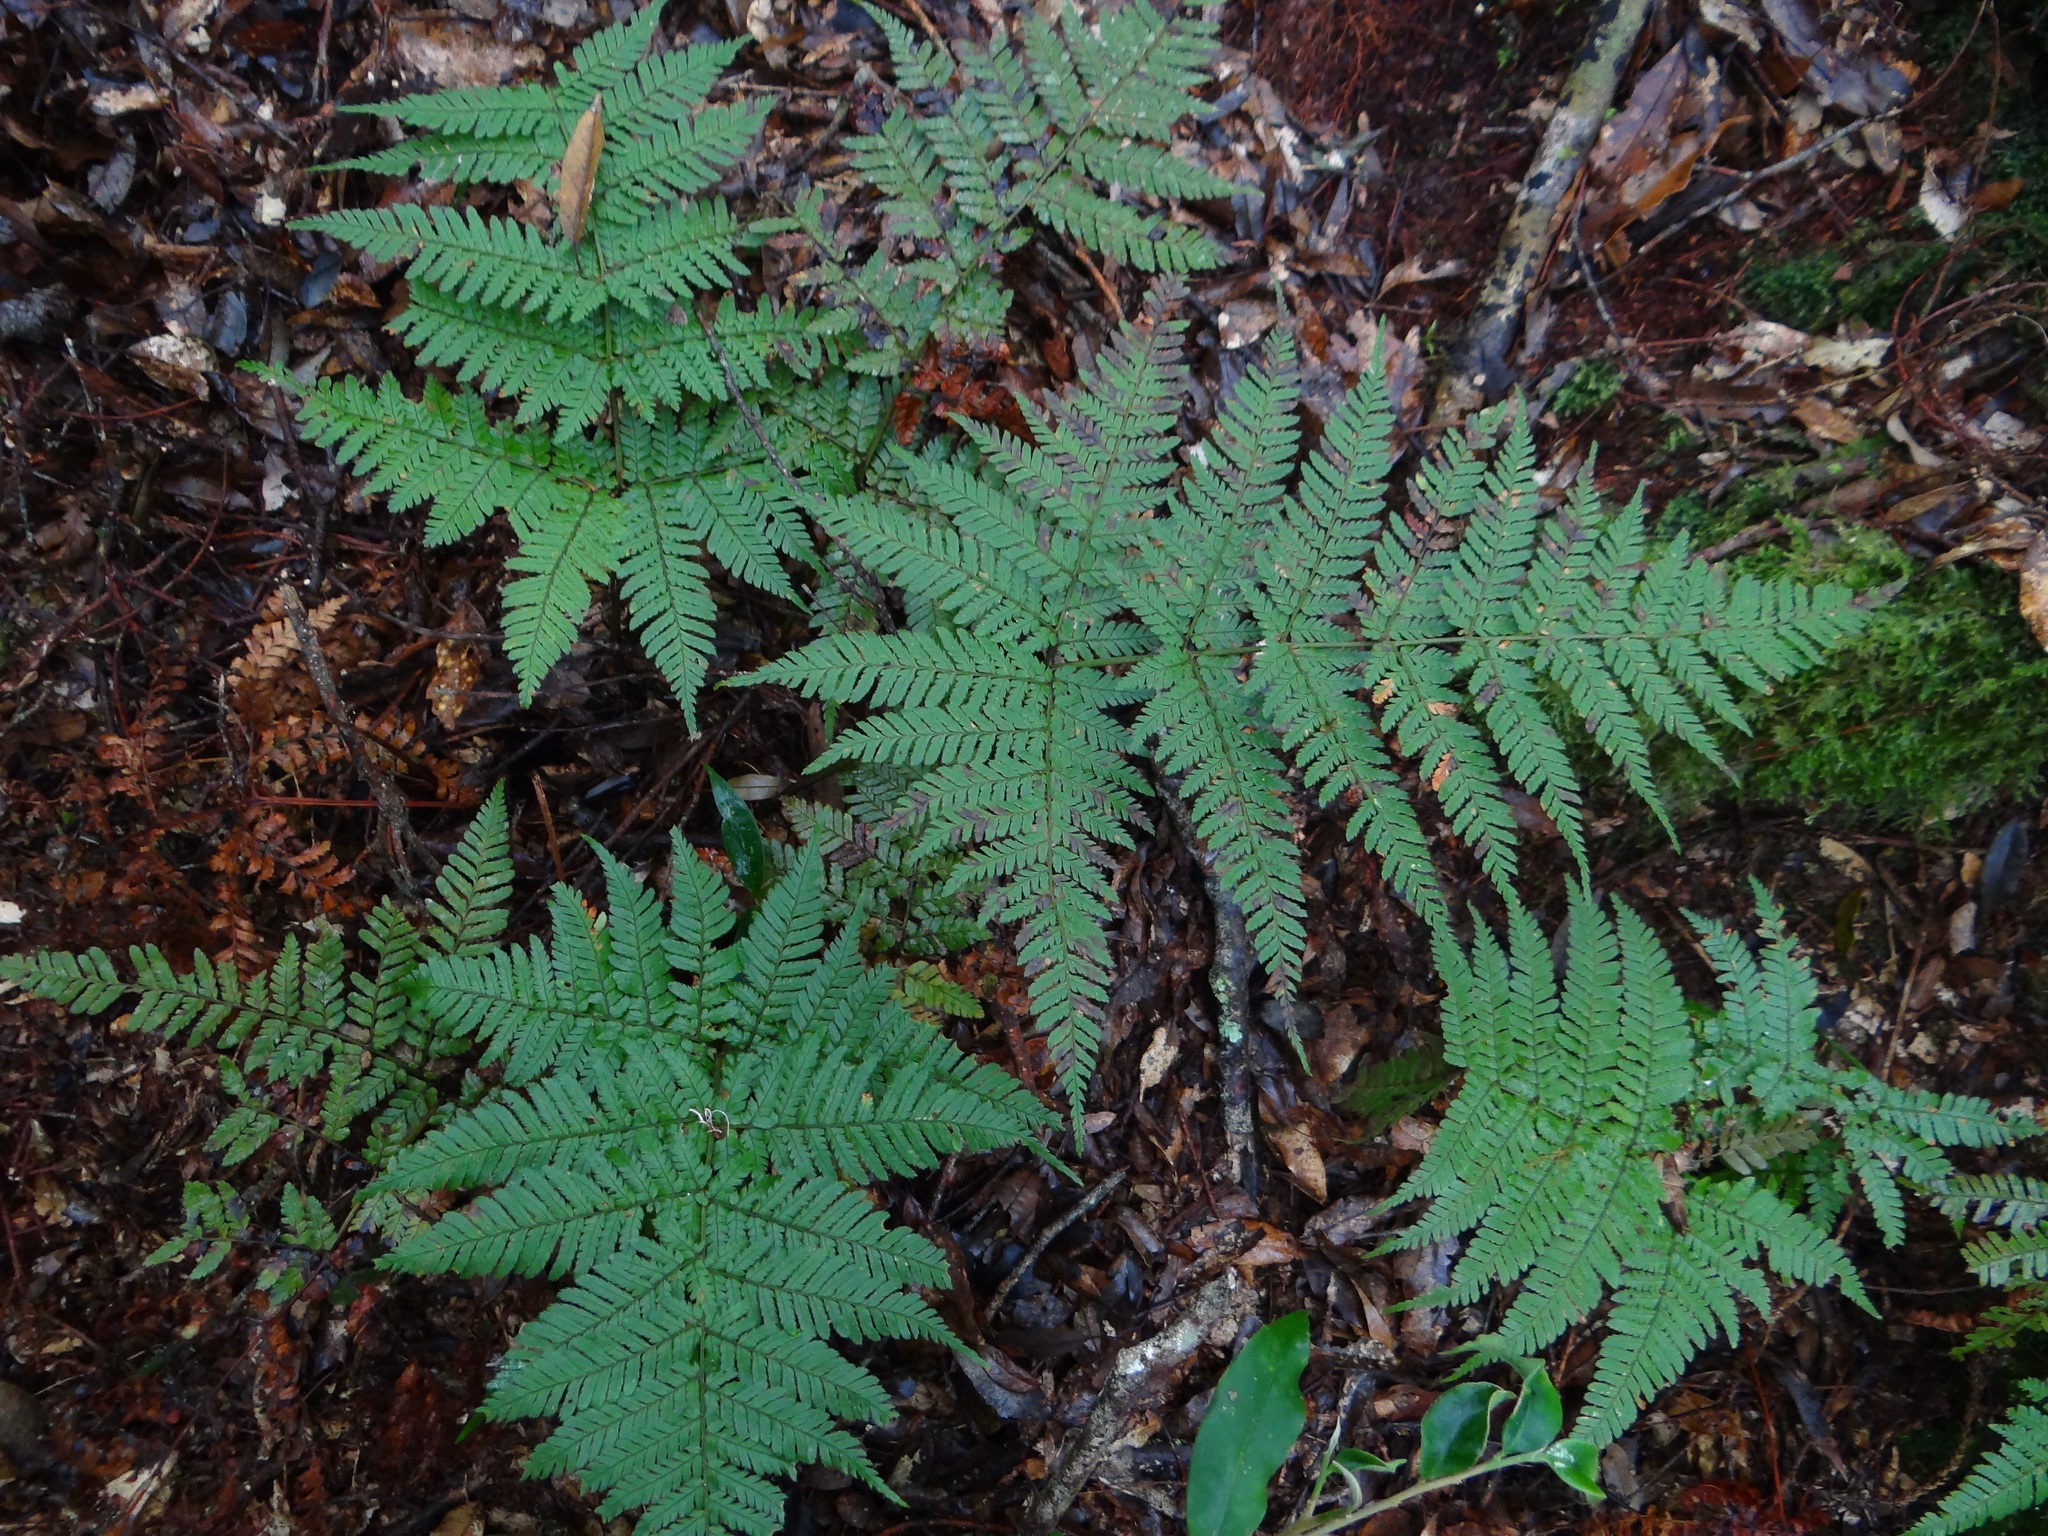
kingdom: Plantae
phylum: Tracheophyta
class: Polypodiopsida
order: Polypodiales
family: Dryopteridaceae
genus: Dryopteris
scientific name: Dryopteris formosana
